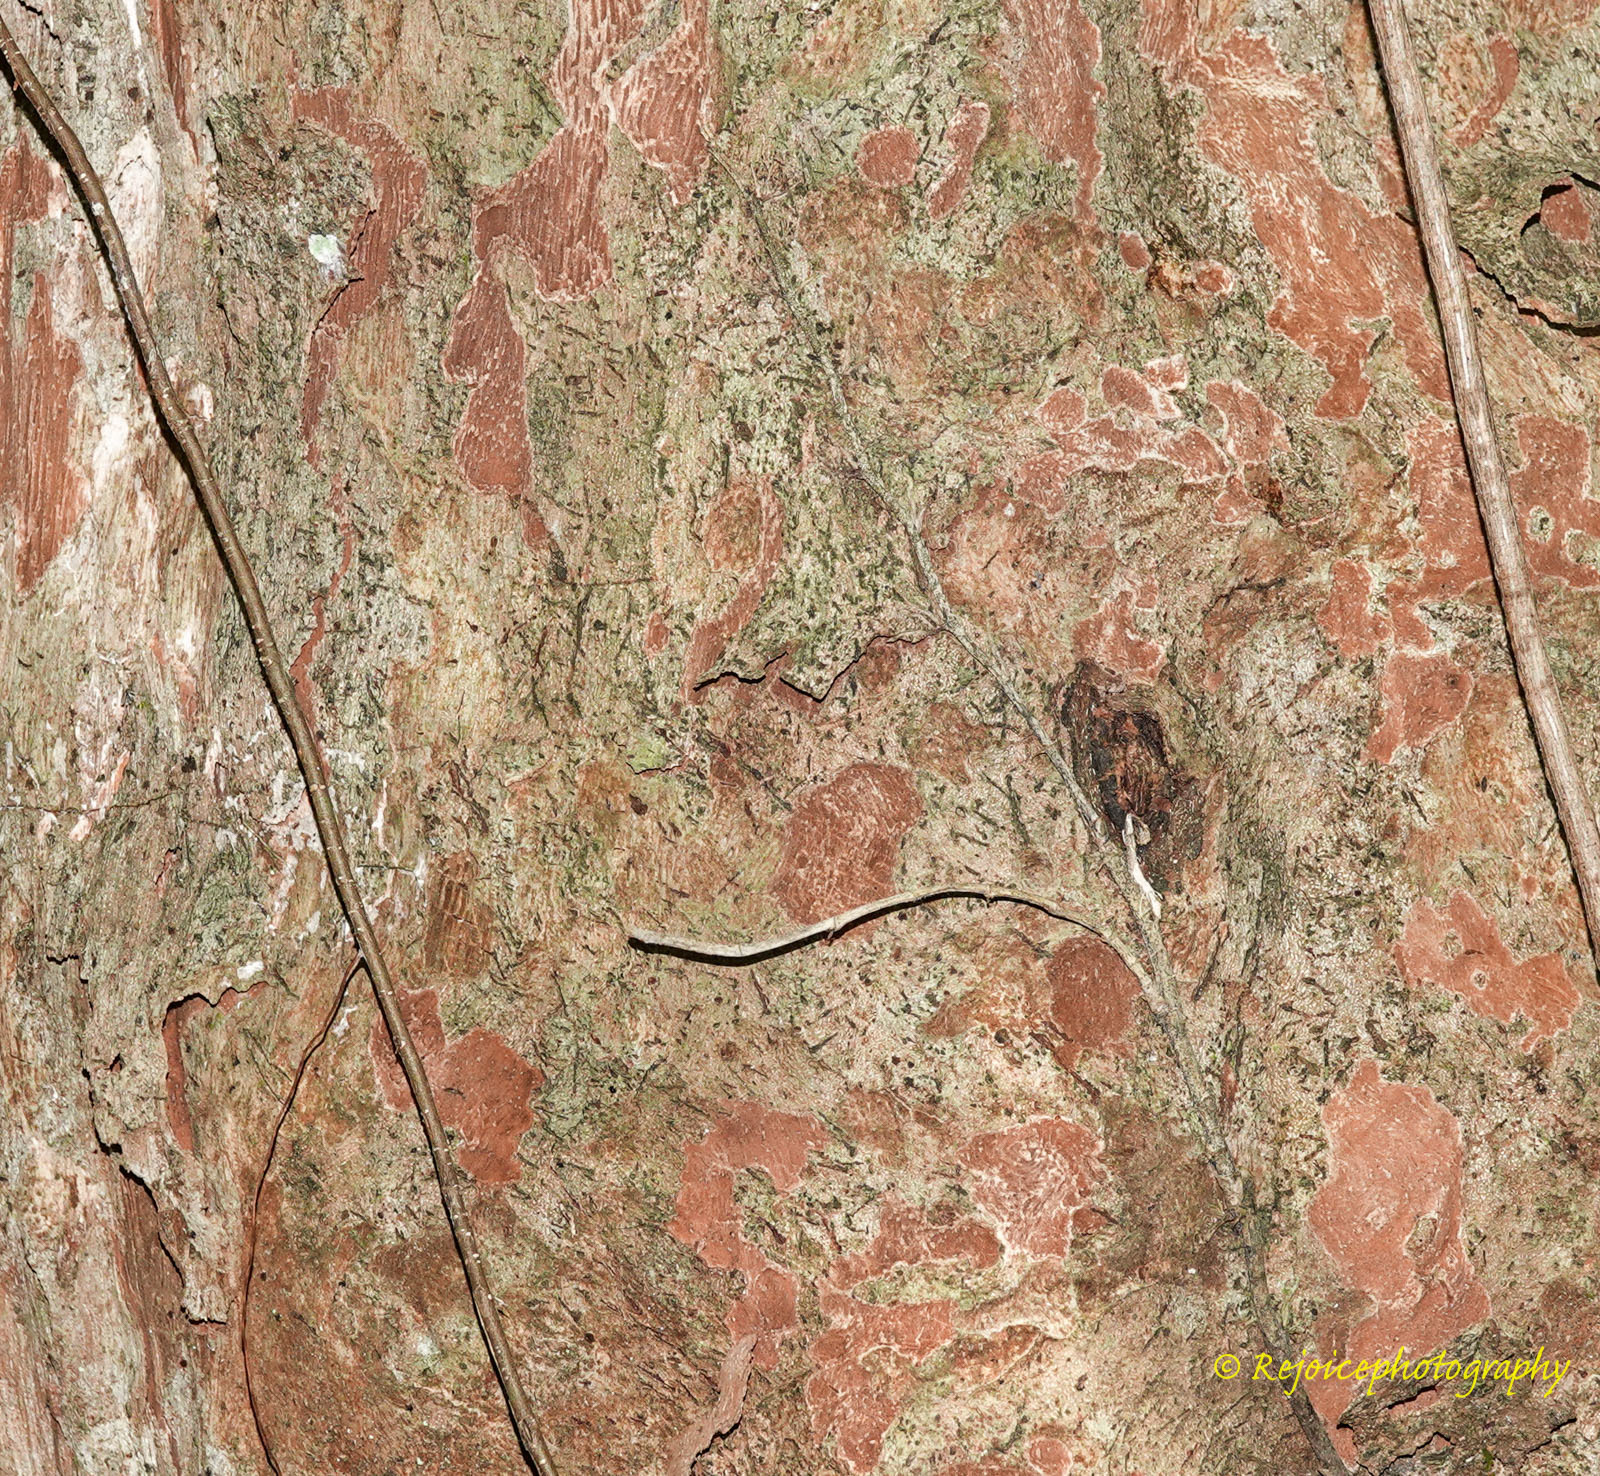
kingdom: Plantae
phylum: Tracheophyta
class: Magnoliopsida
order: Malpighiales
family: Phyllanthaceae
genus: Phyllanthus
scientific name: Phyllanthus emblica
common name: Indian gooseberry
